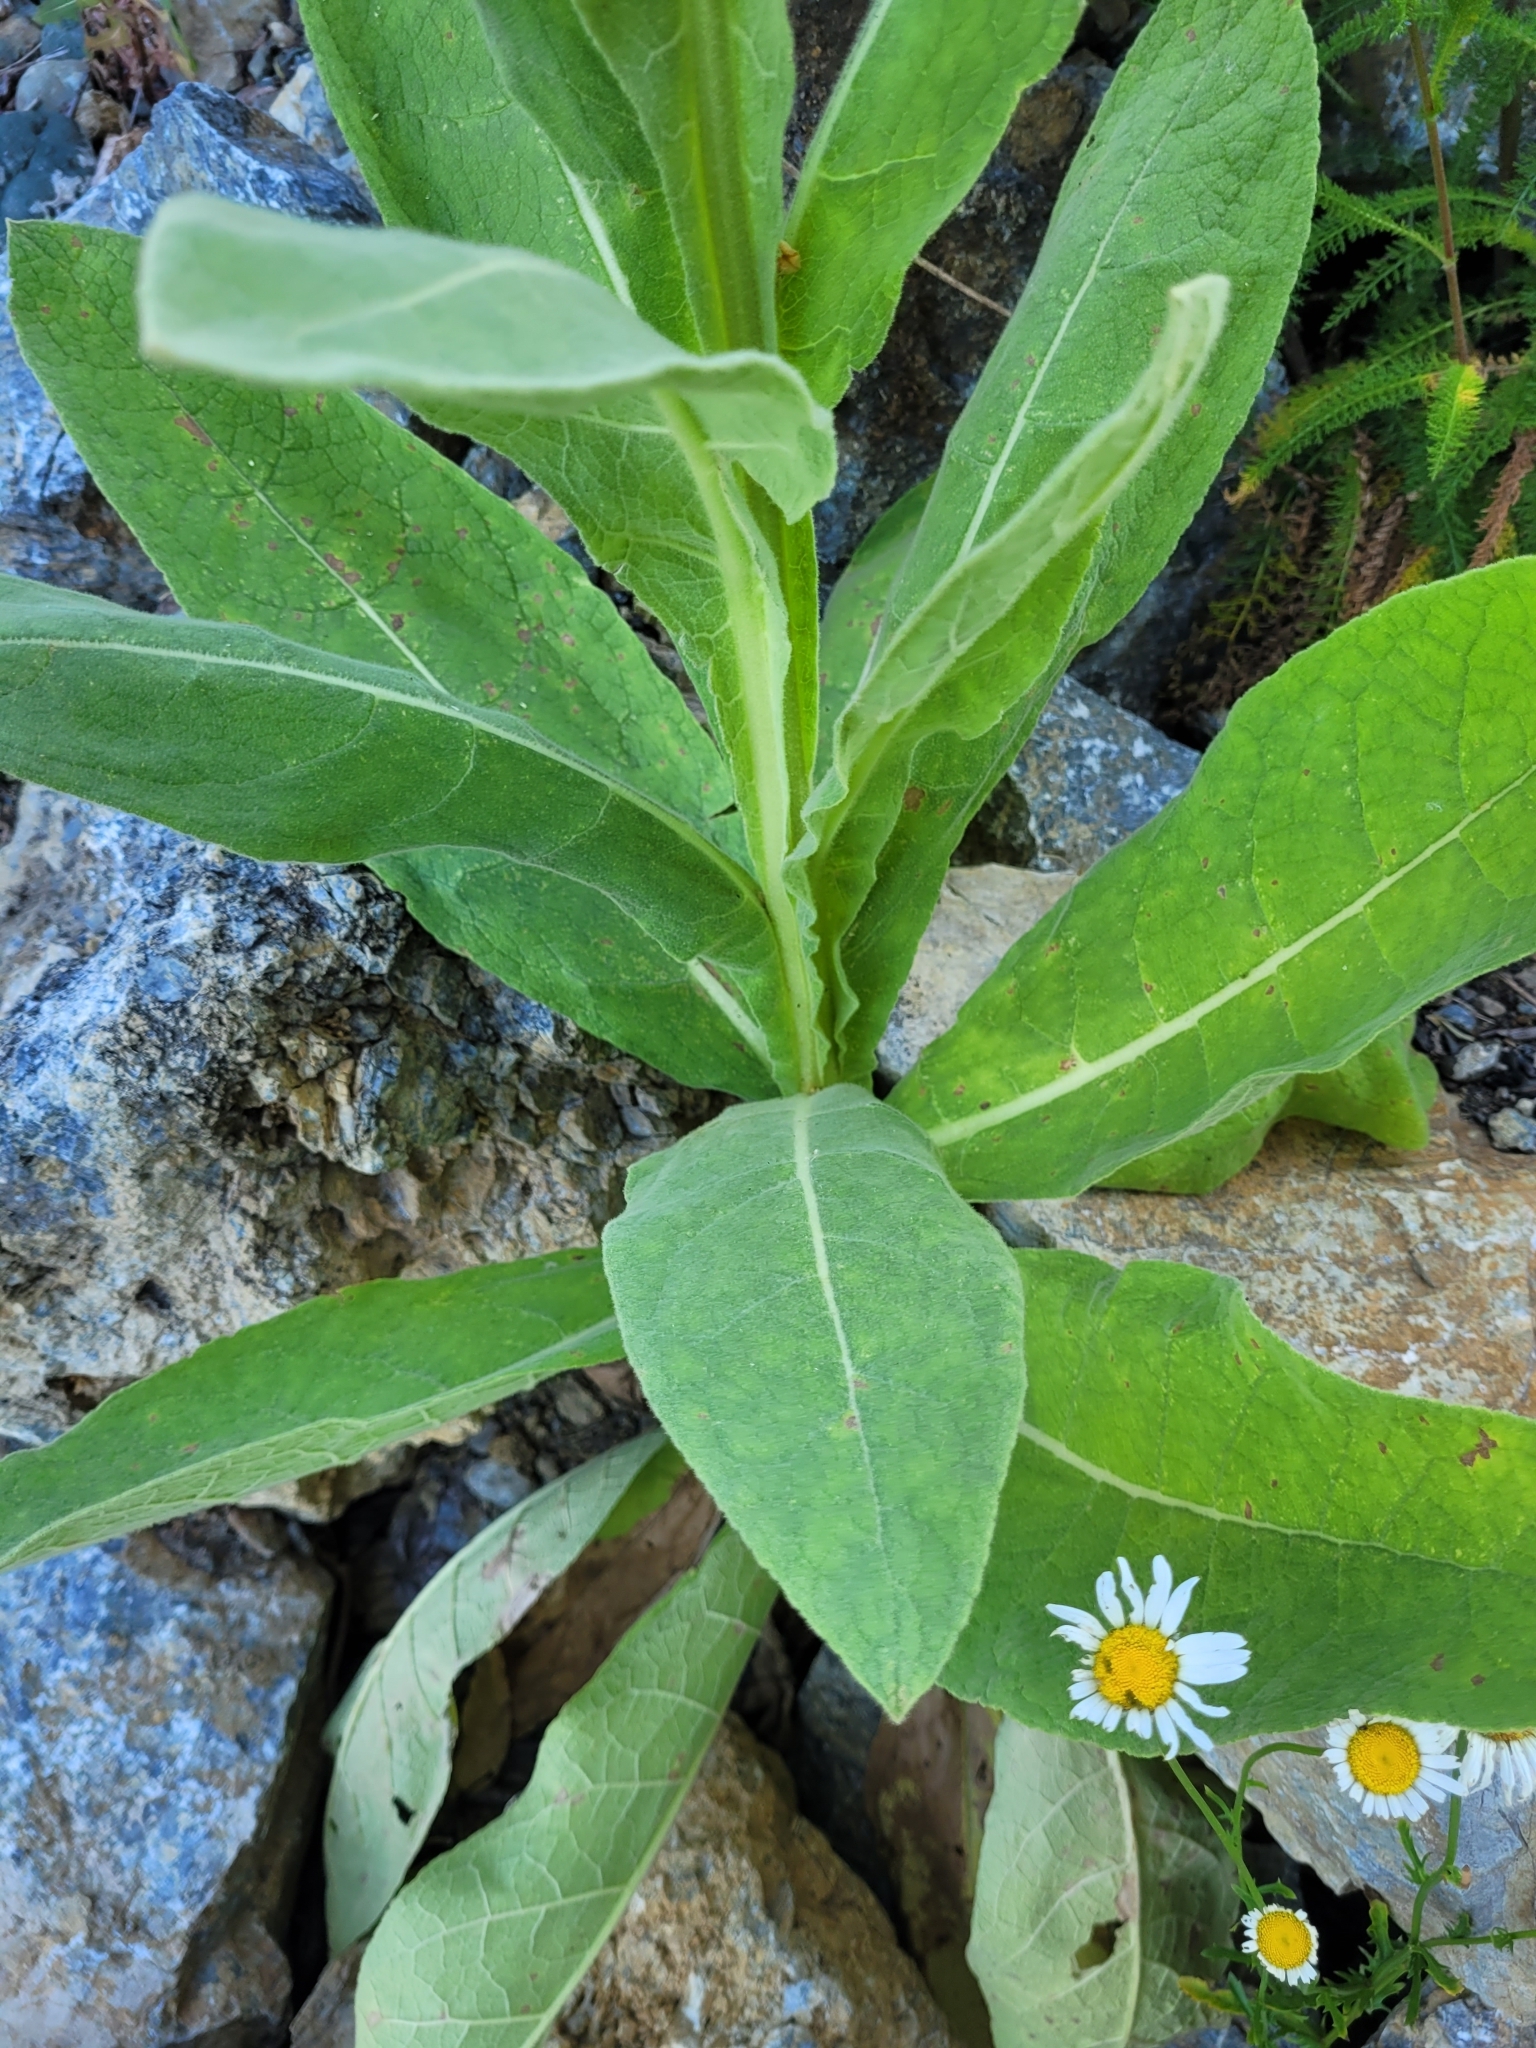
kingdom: Plantae
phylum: Tracheophyta
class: Magnoliopsida
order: Lamiales
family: Scrophulariaceae
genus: Verbascum
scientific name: Verbascum thapsus
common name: Common mullein
